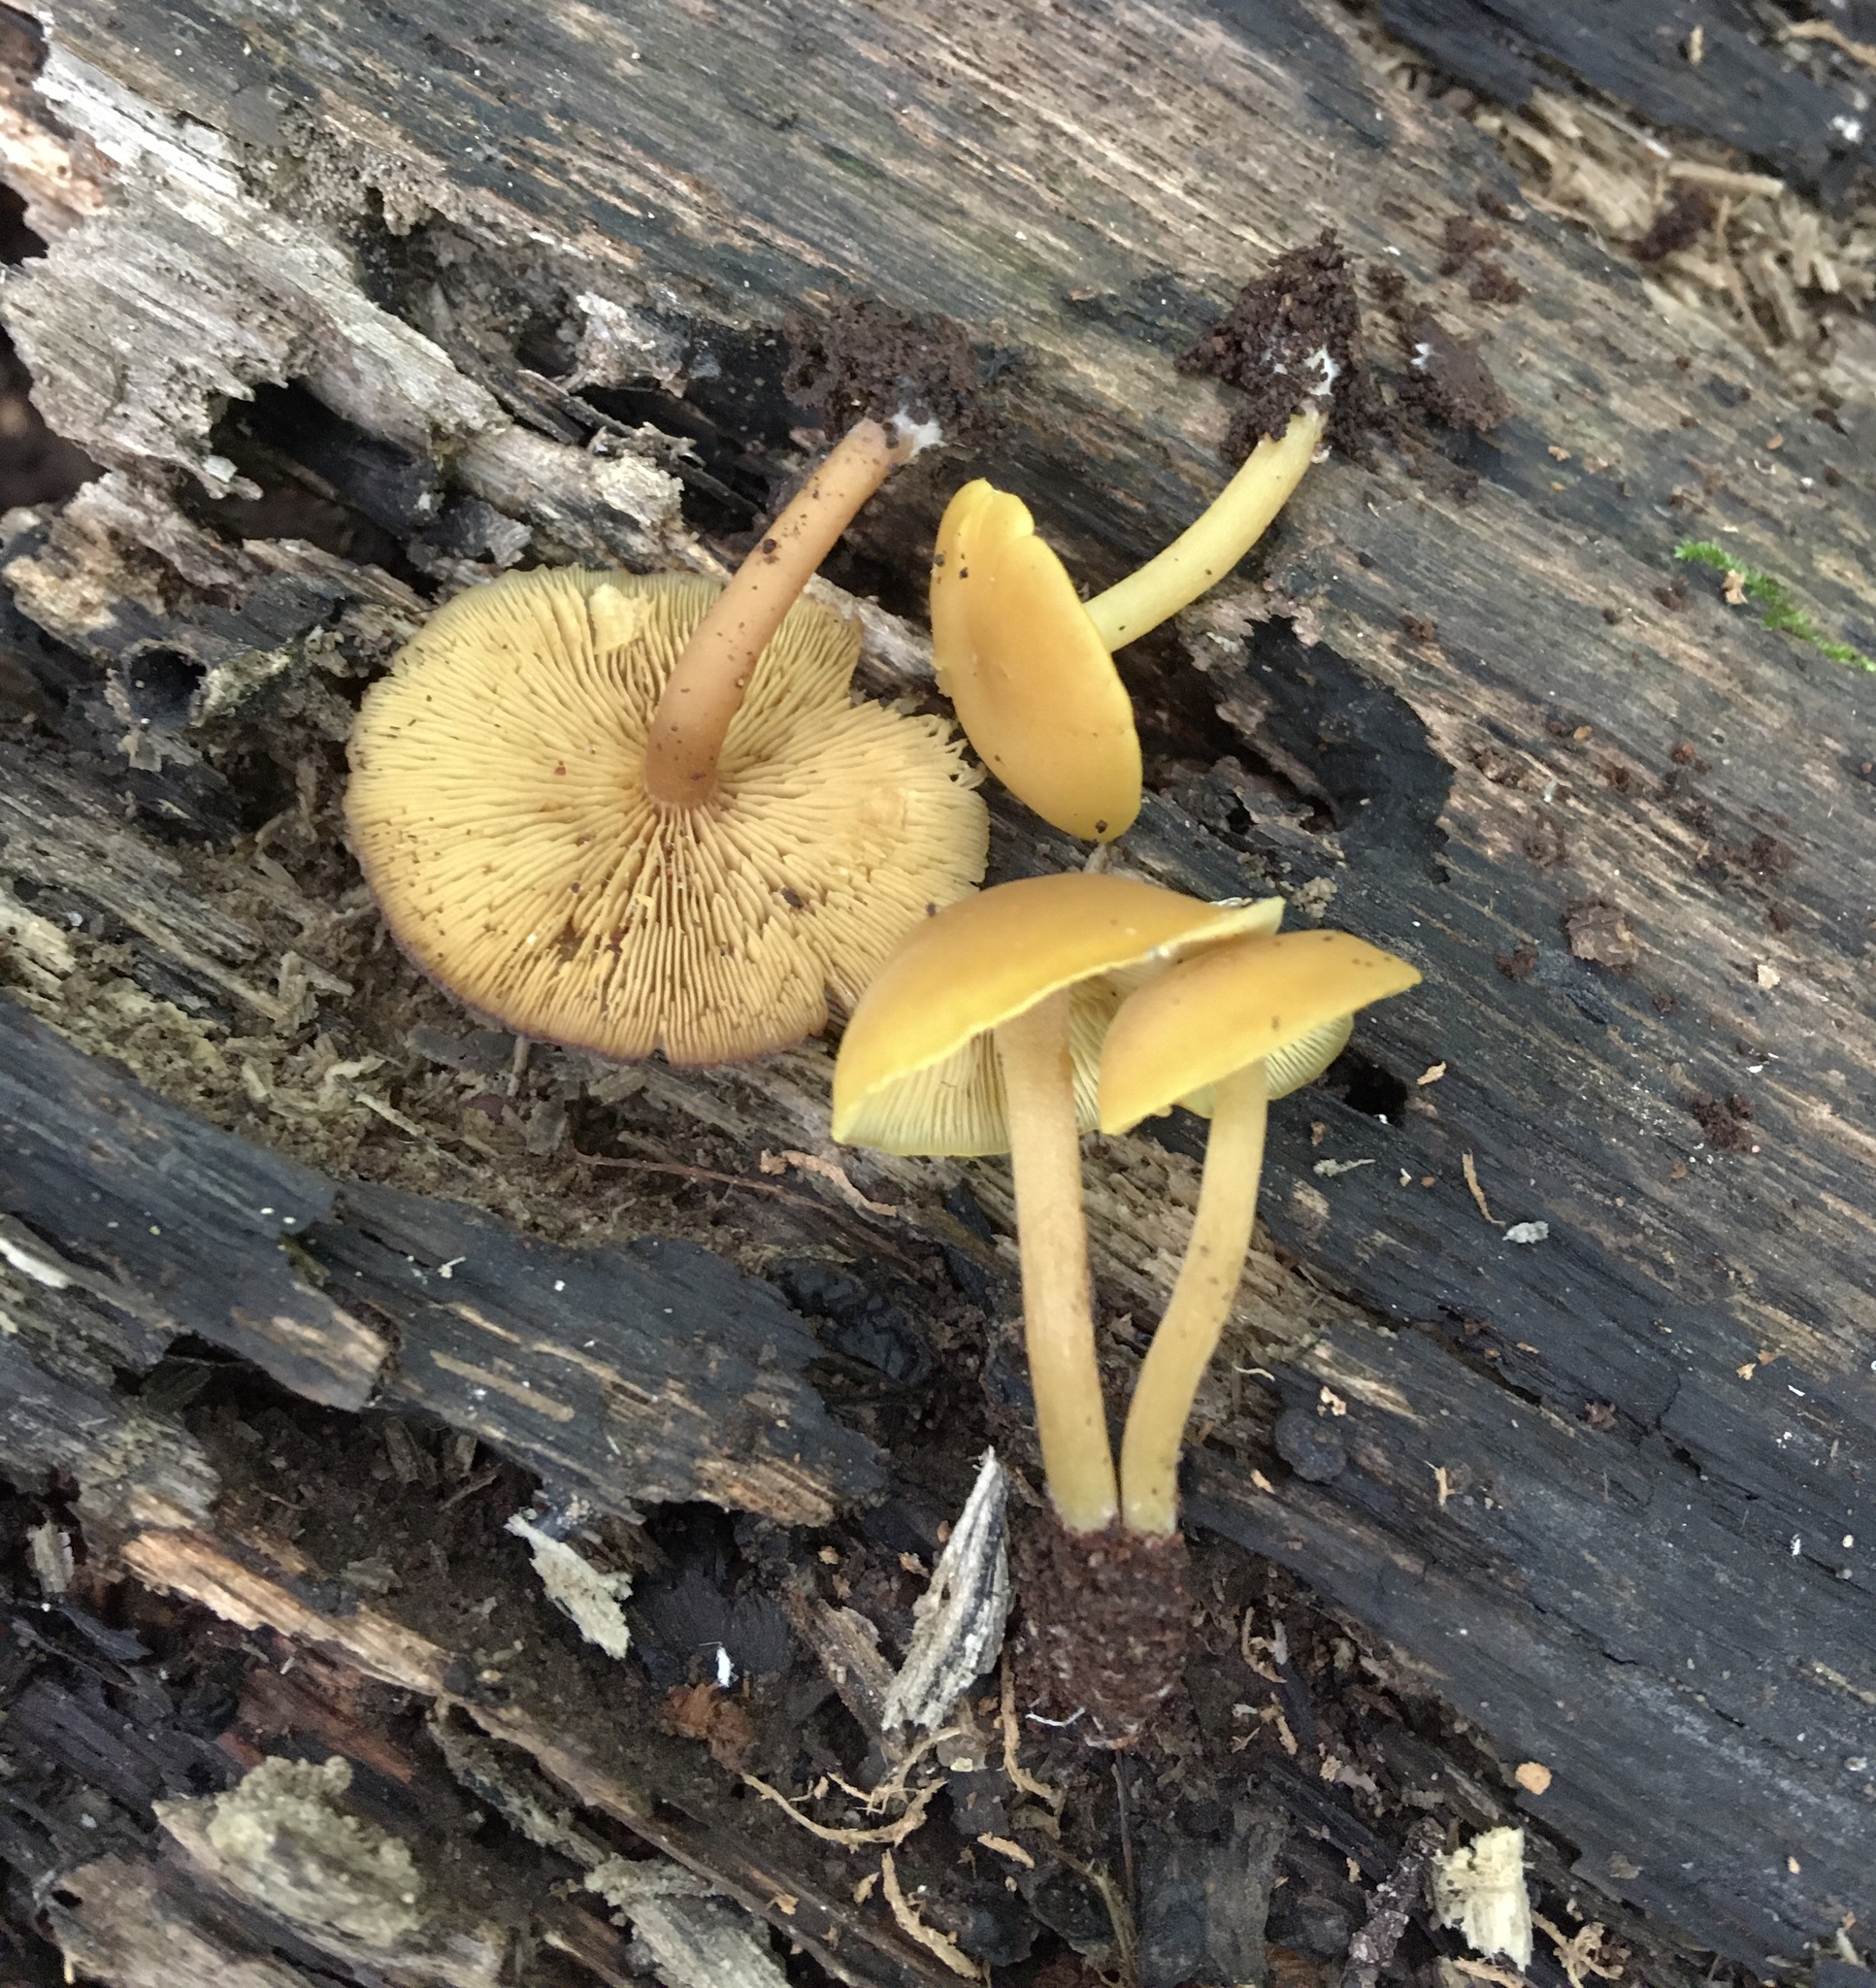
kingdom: Fungi
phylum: Basidiomycota
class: Agaricomycetes
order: Agaricales
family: Callistosporiaceae
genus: Callistosporium
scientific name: Callistosporium luteo-olivaceum
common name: Olive lute
